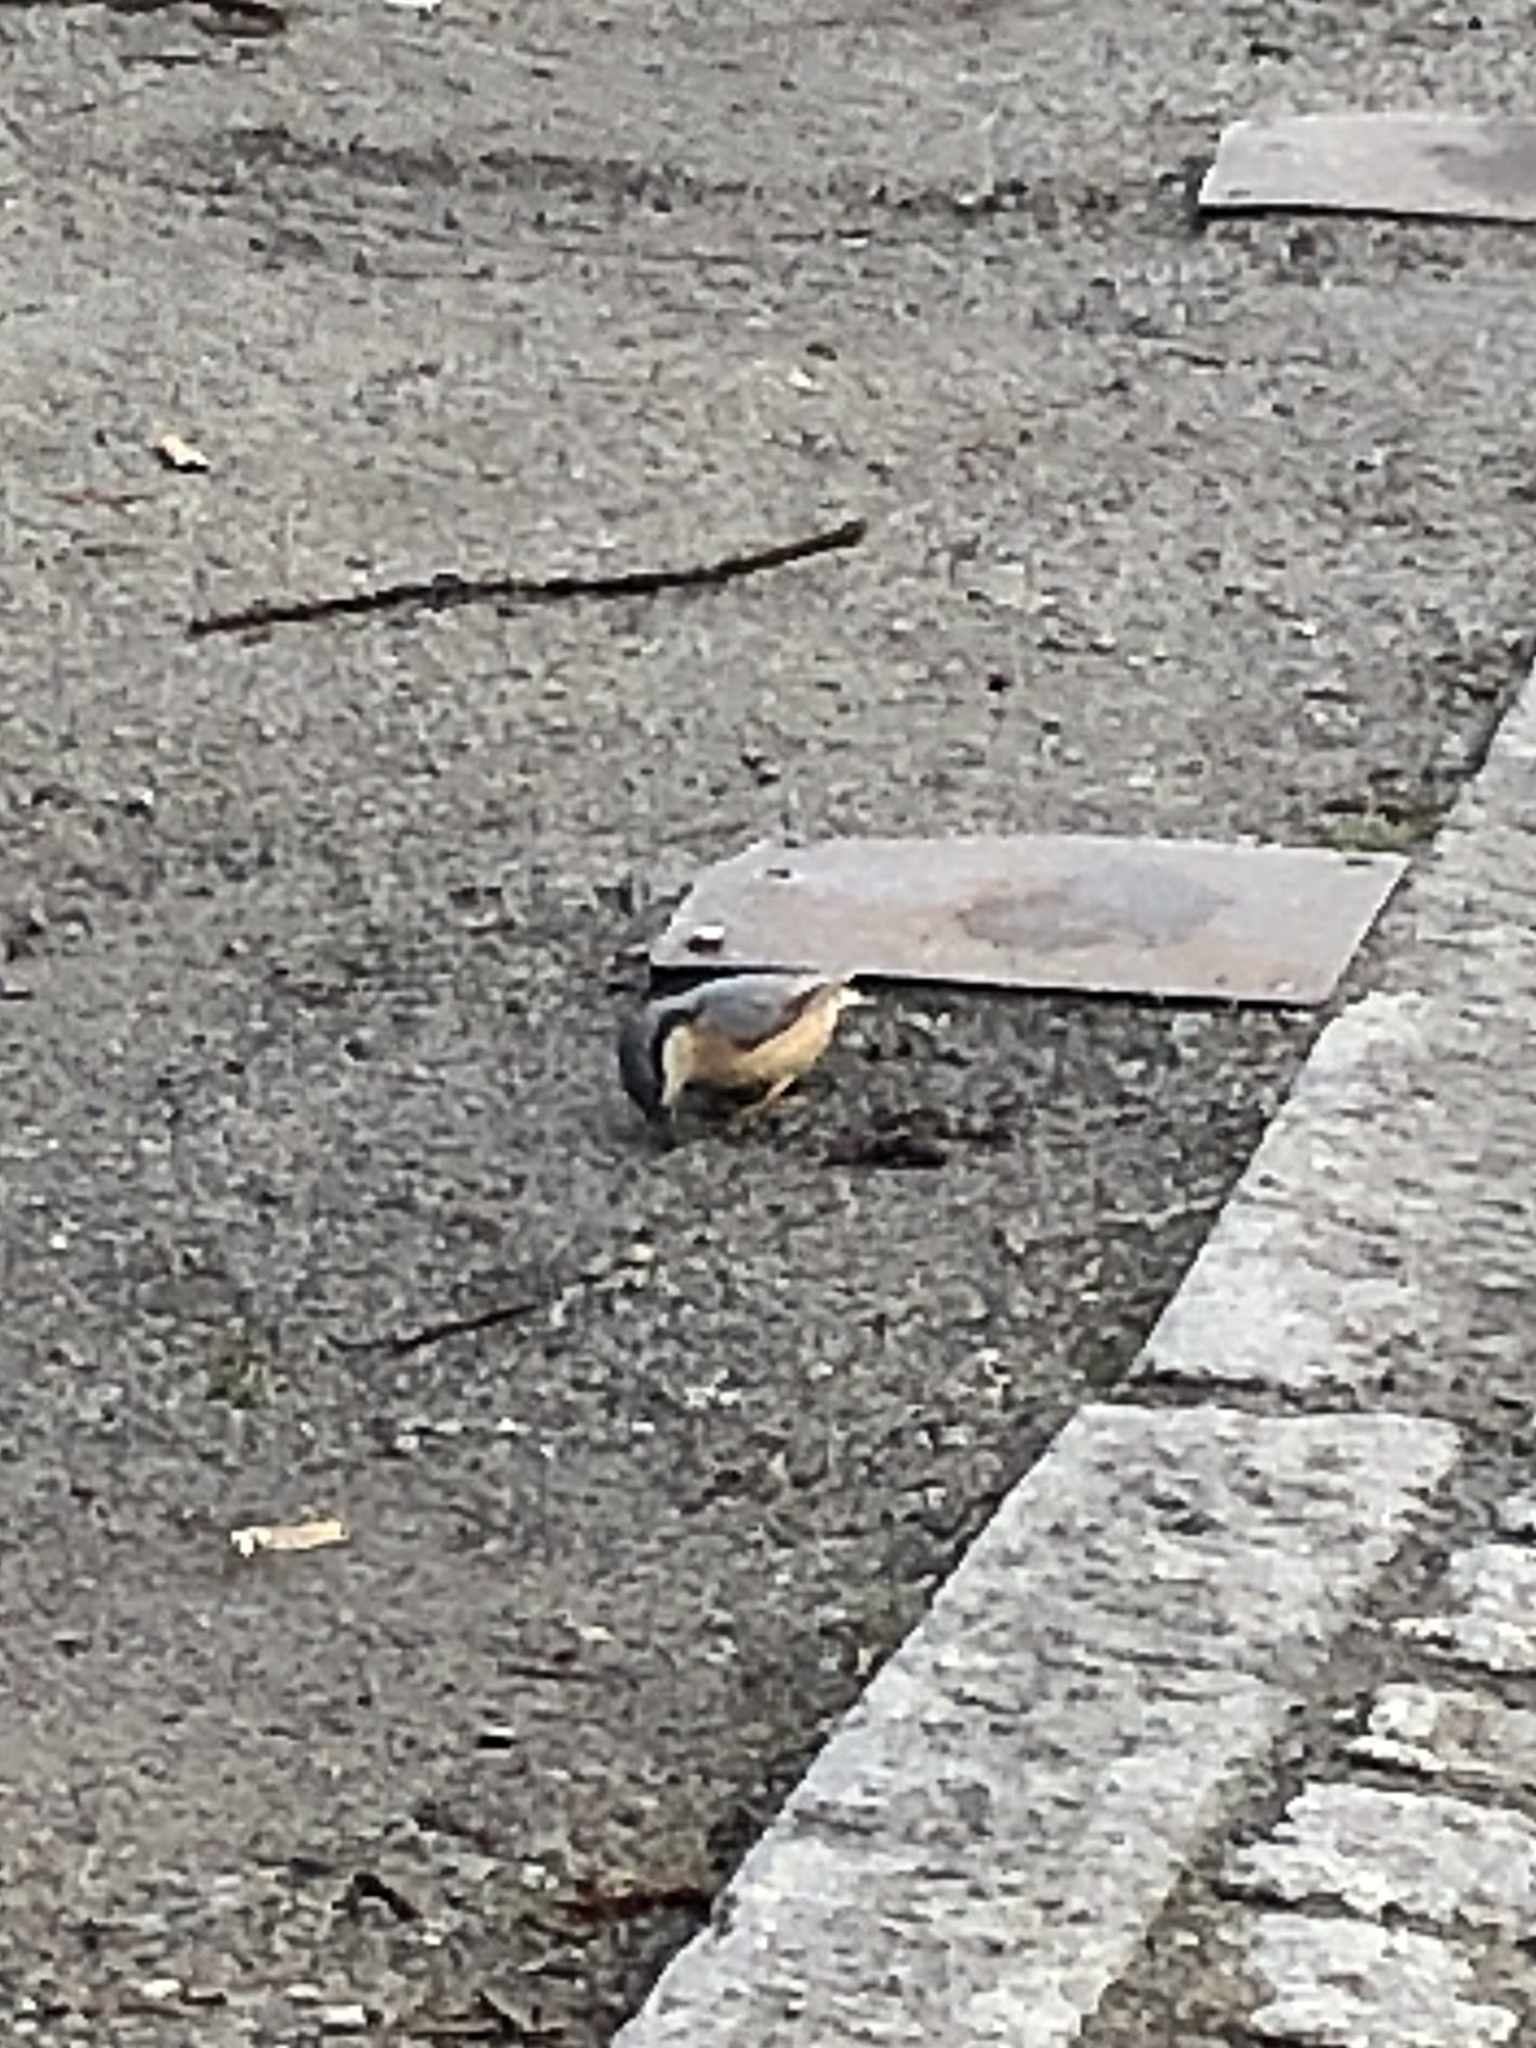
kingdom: Animalia
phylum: Chordata
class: Aves
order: Passeriformes
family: Sittidae
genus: Sitta
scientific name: Sitta europaea
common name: Eurasian nuthatch
